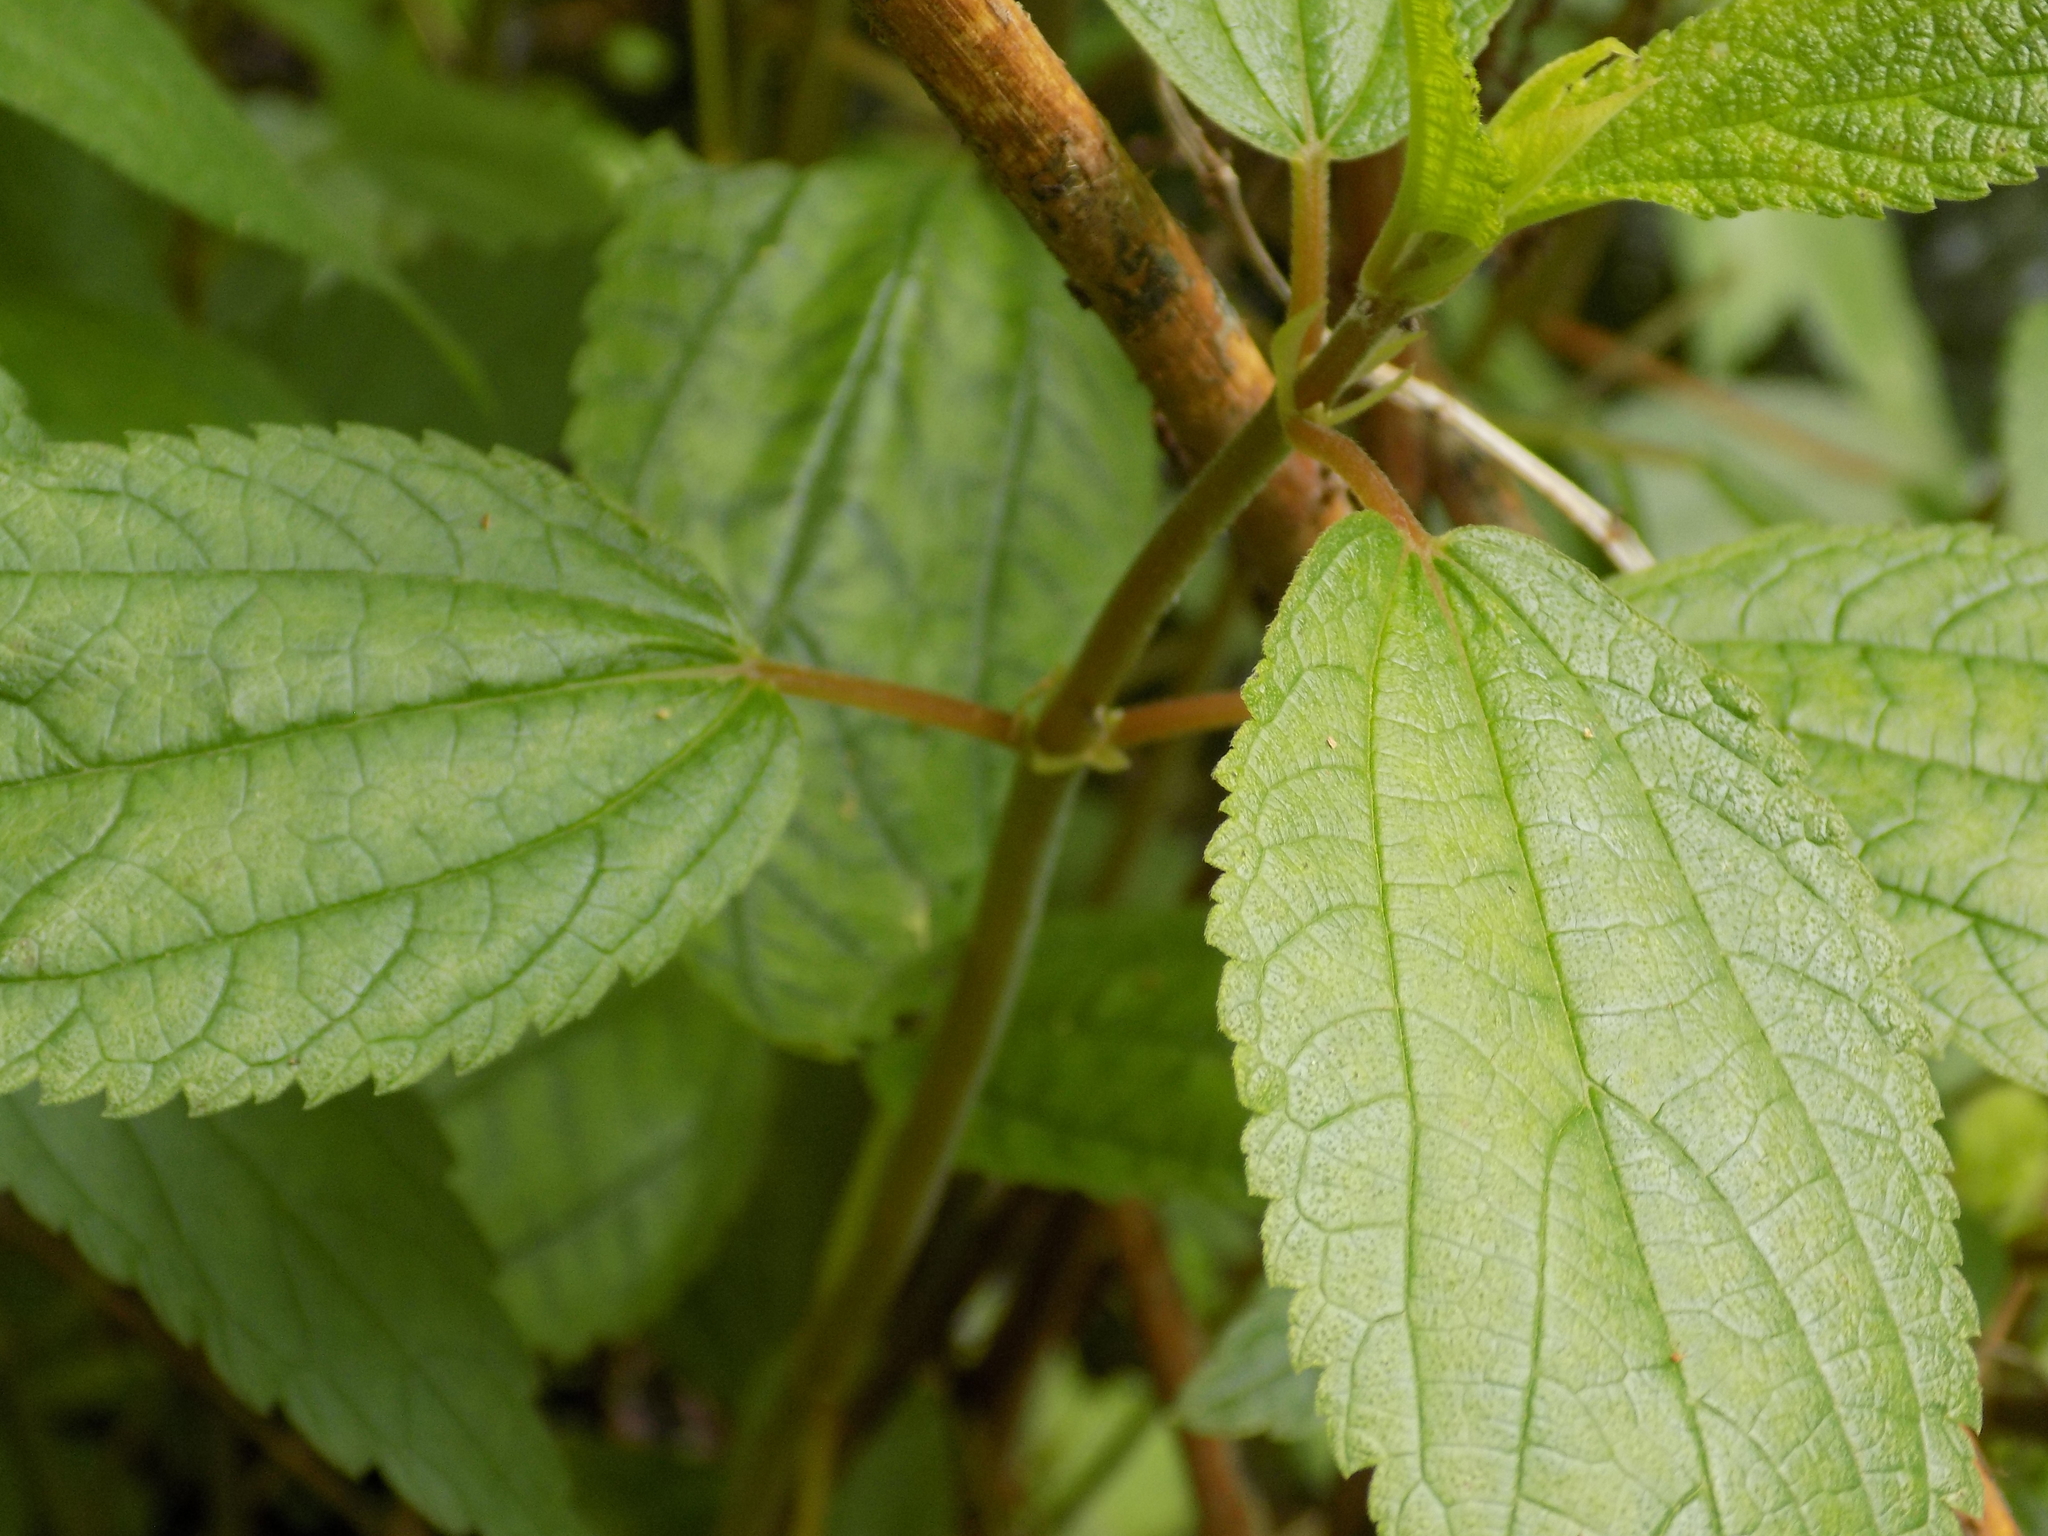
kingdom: Plantae
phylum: Tracheophyta
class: Magnoliopsida
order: Rosales
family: Urticaceae
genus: Boehmeria
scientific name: Boehmeria cylindrica
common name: Bog-hemp
